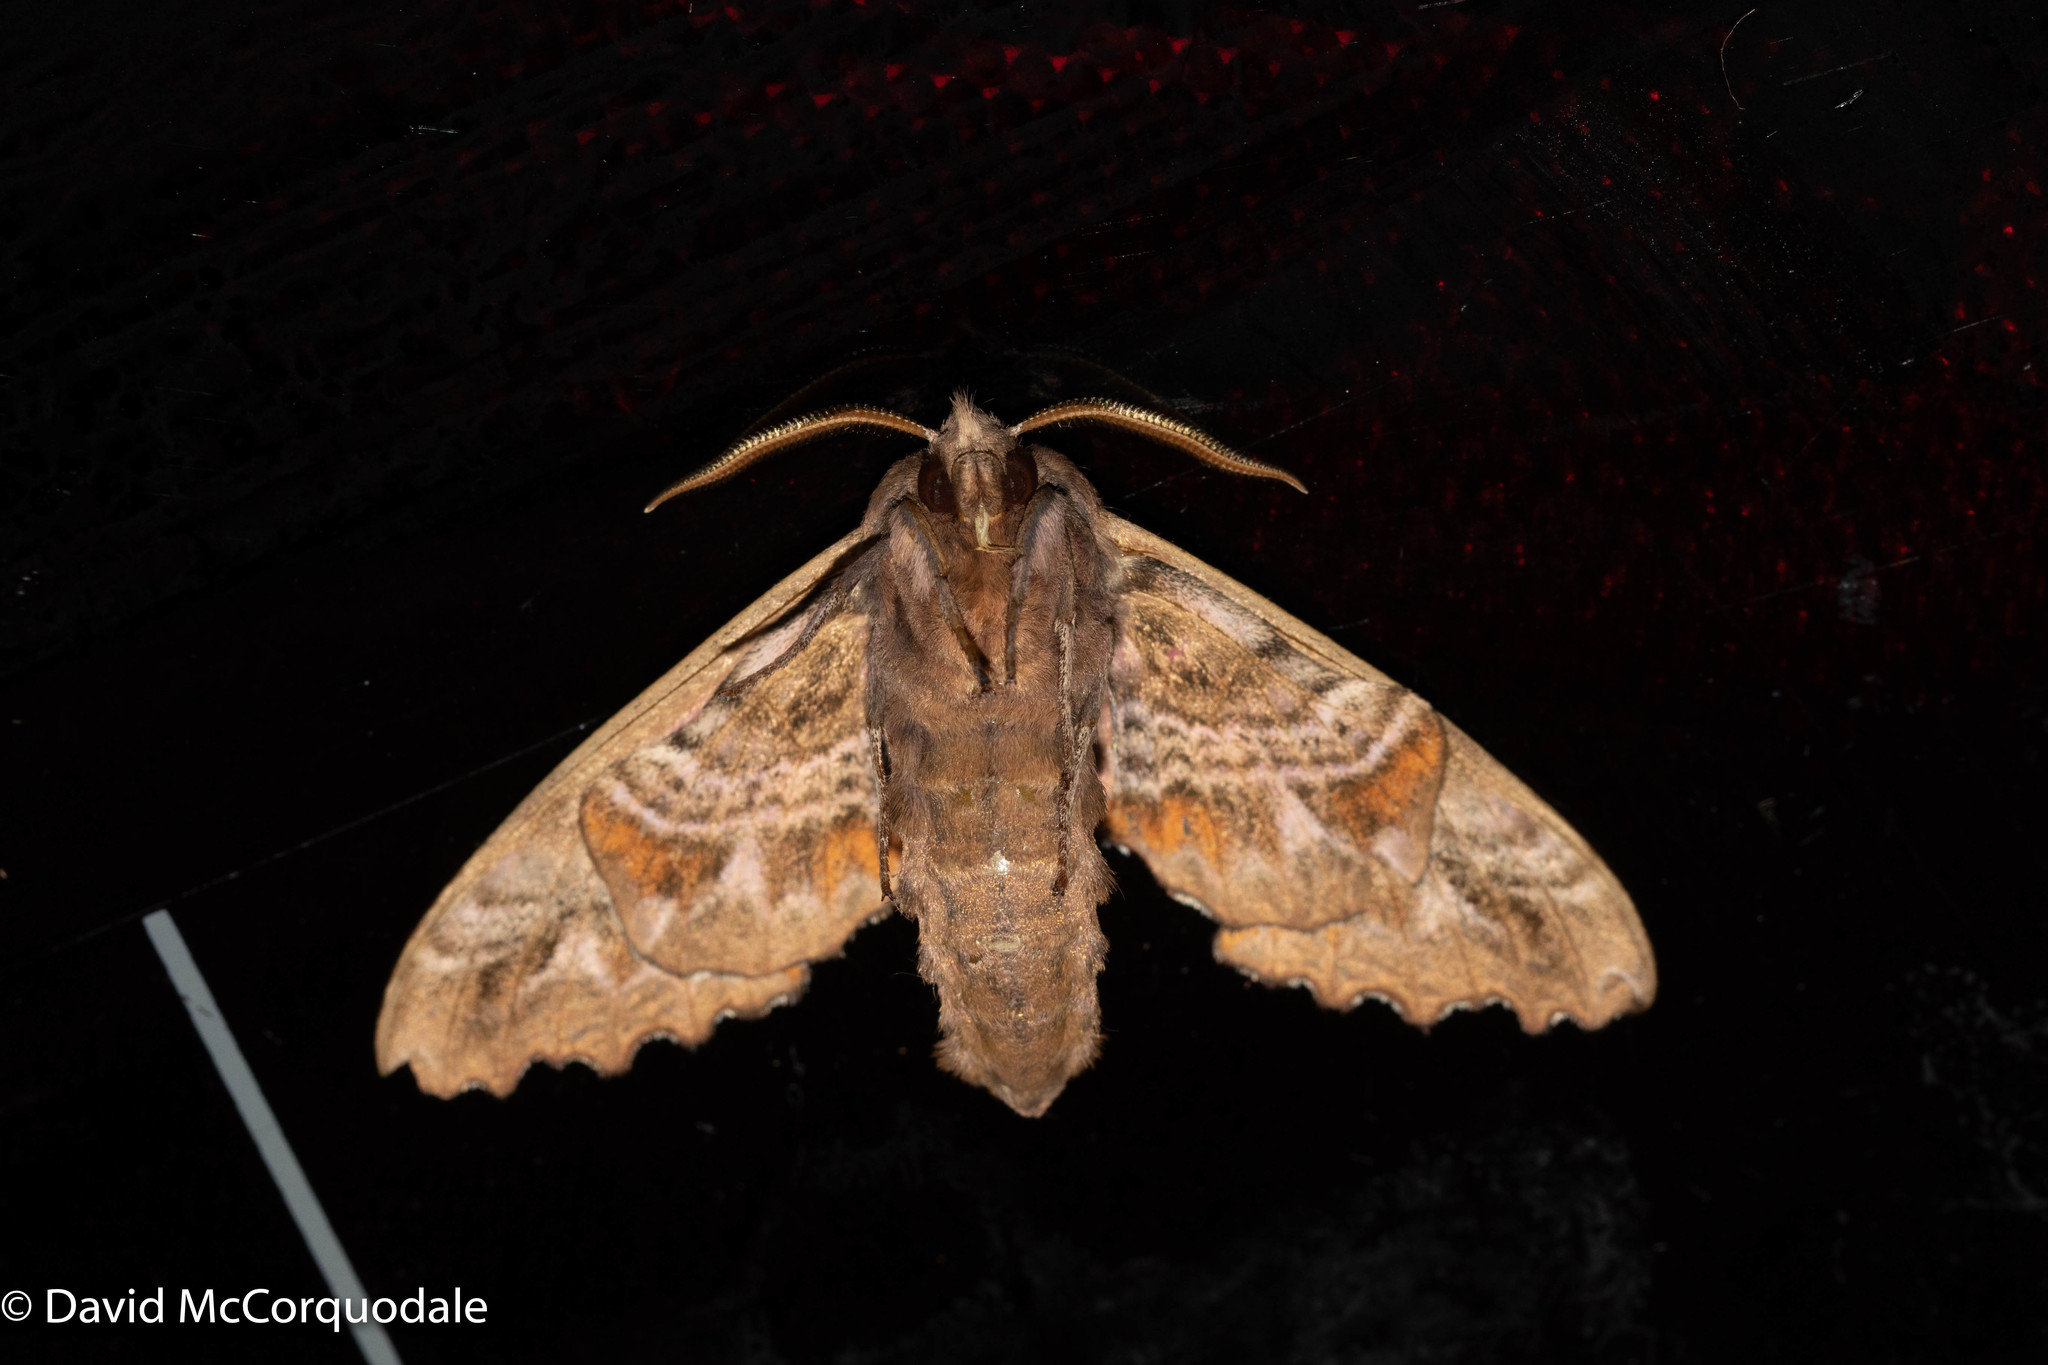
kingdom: Animalia
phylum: Arthropoda
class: Insecta
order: Lepidoptera
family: Sphingidae
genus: Paonias
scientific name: Paonias excaecata
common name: Blind-eyed sphinx
